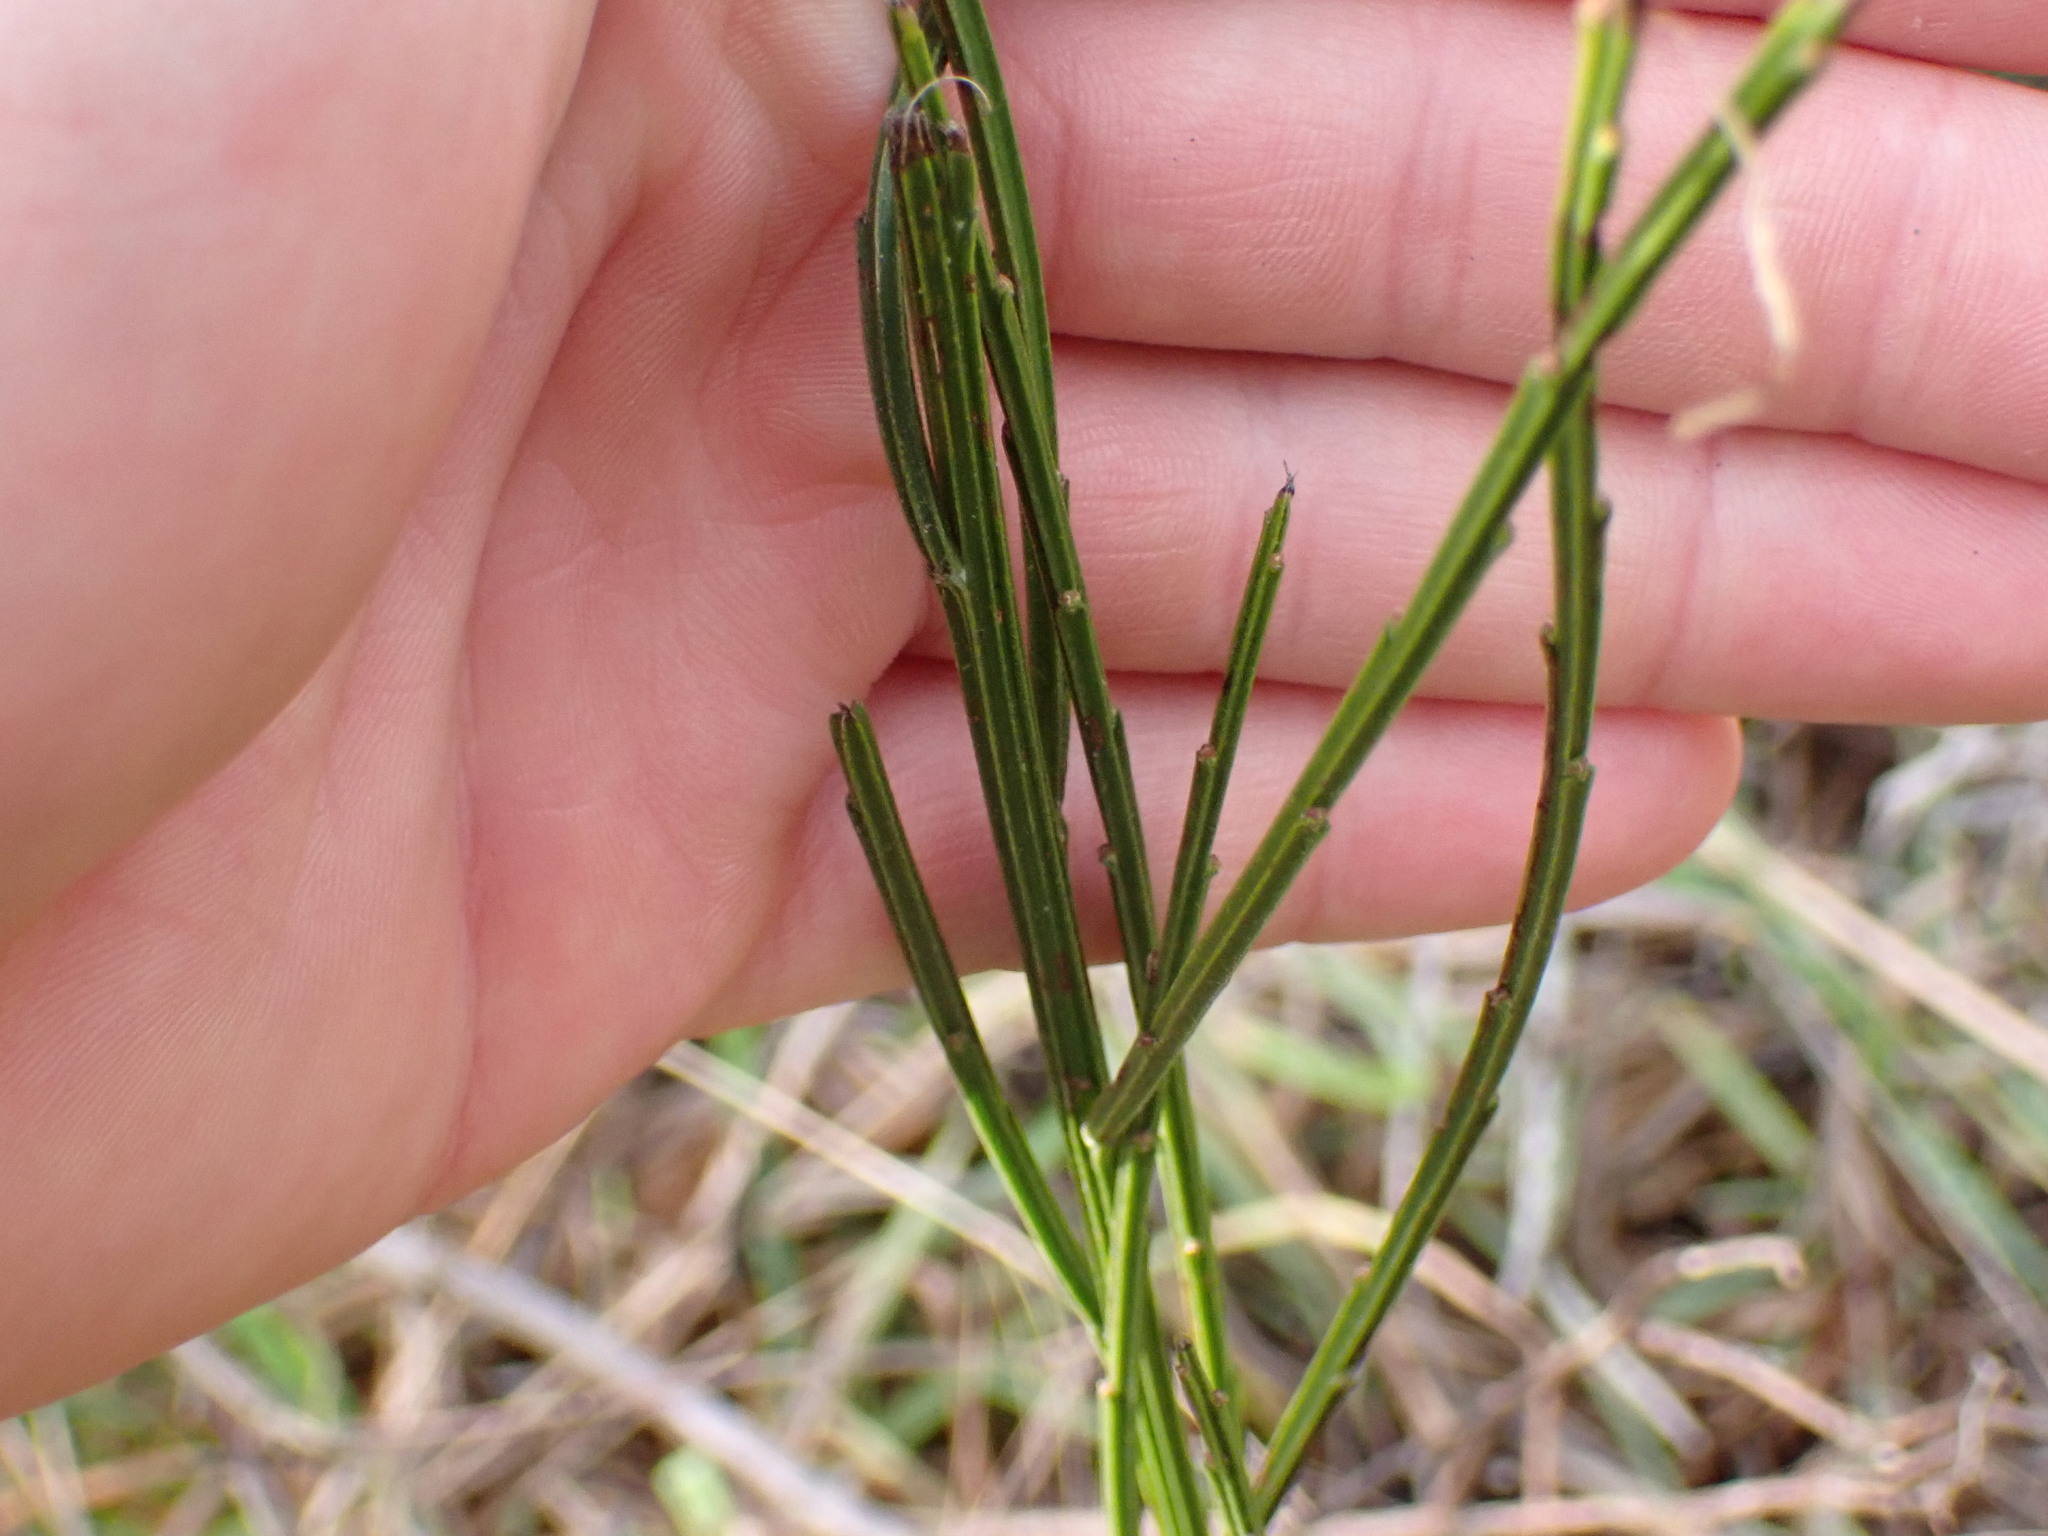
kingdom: Plantae
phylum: Tracheophyta
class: Magnoliopsida
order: Fabales
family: Fabaceae
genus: Cytisus
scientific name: Cytisus scoparius
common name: Scotch broom
